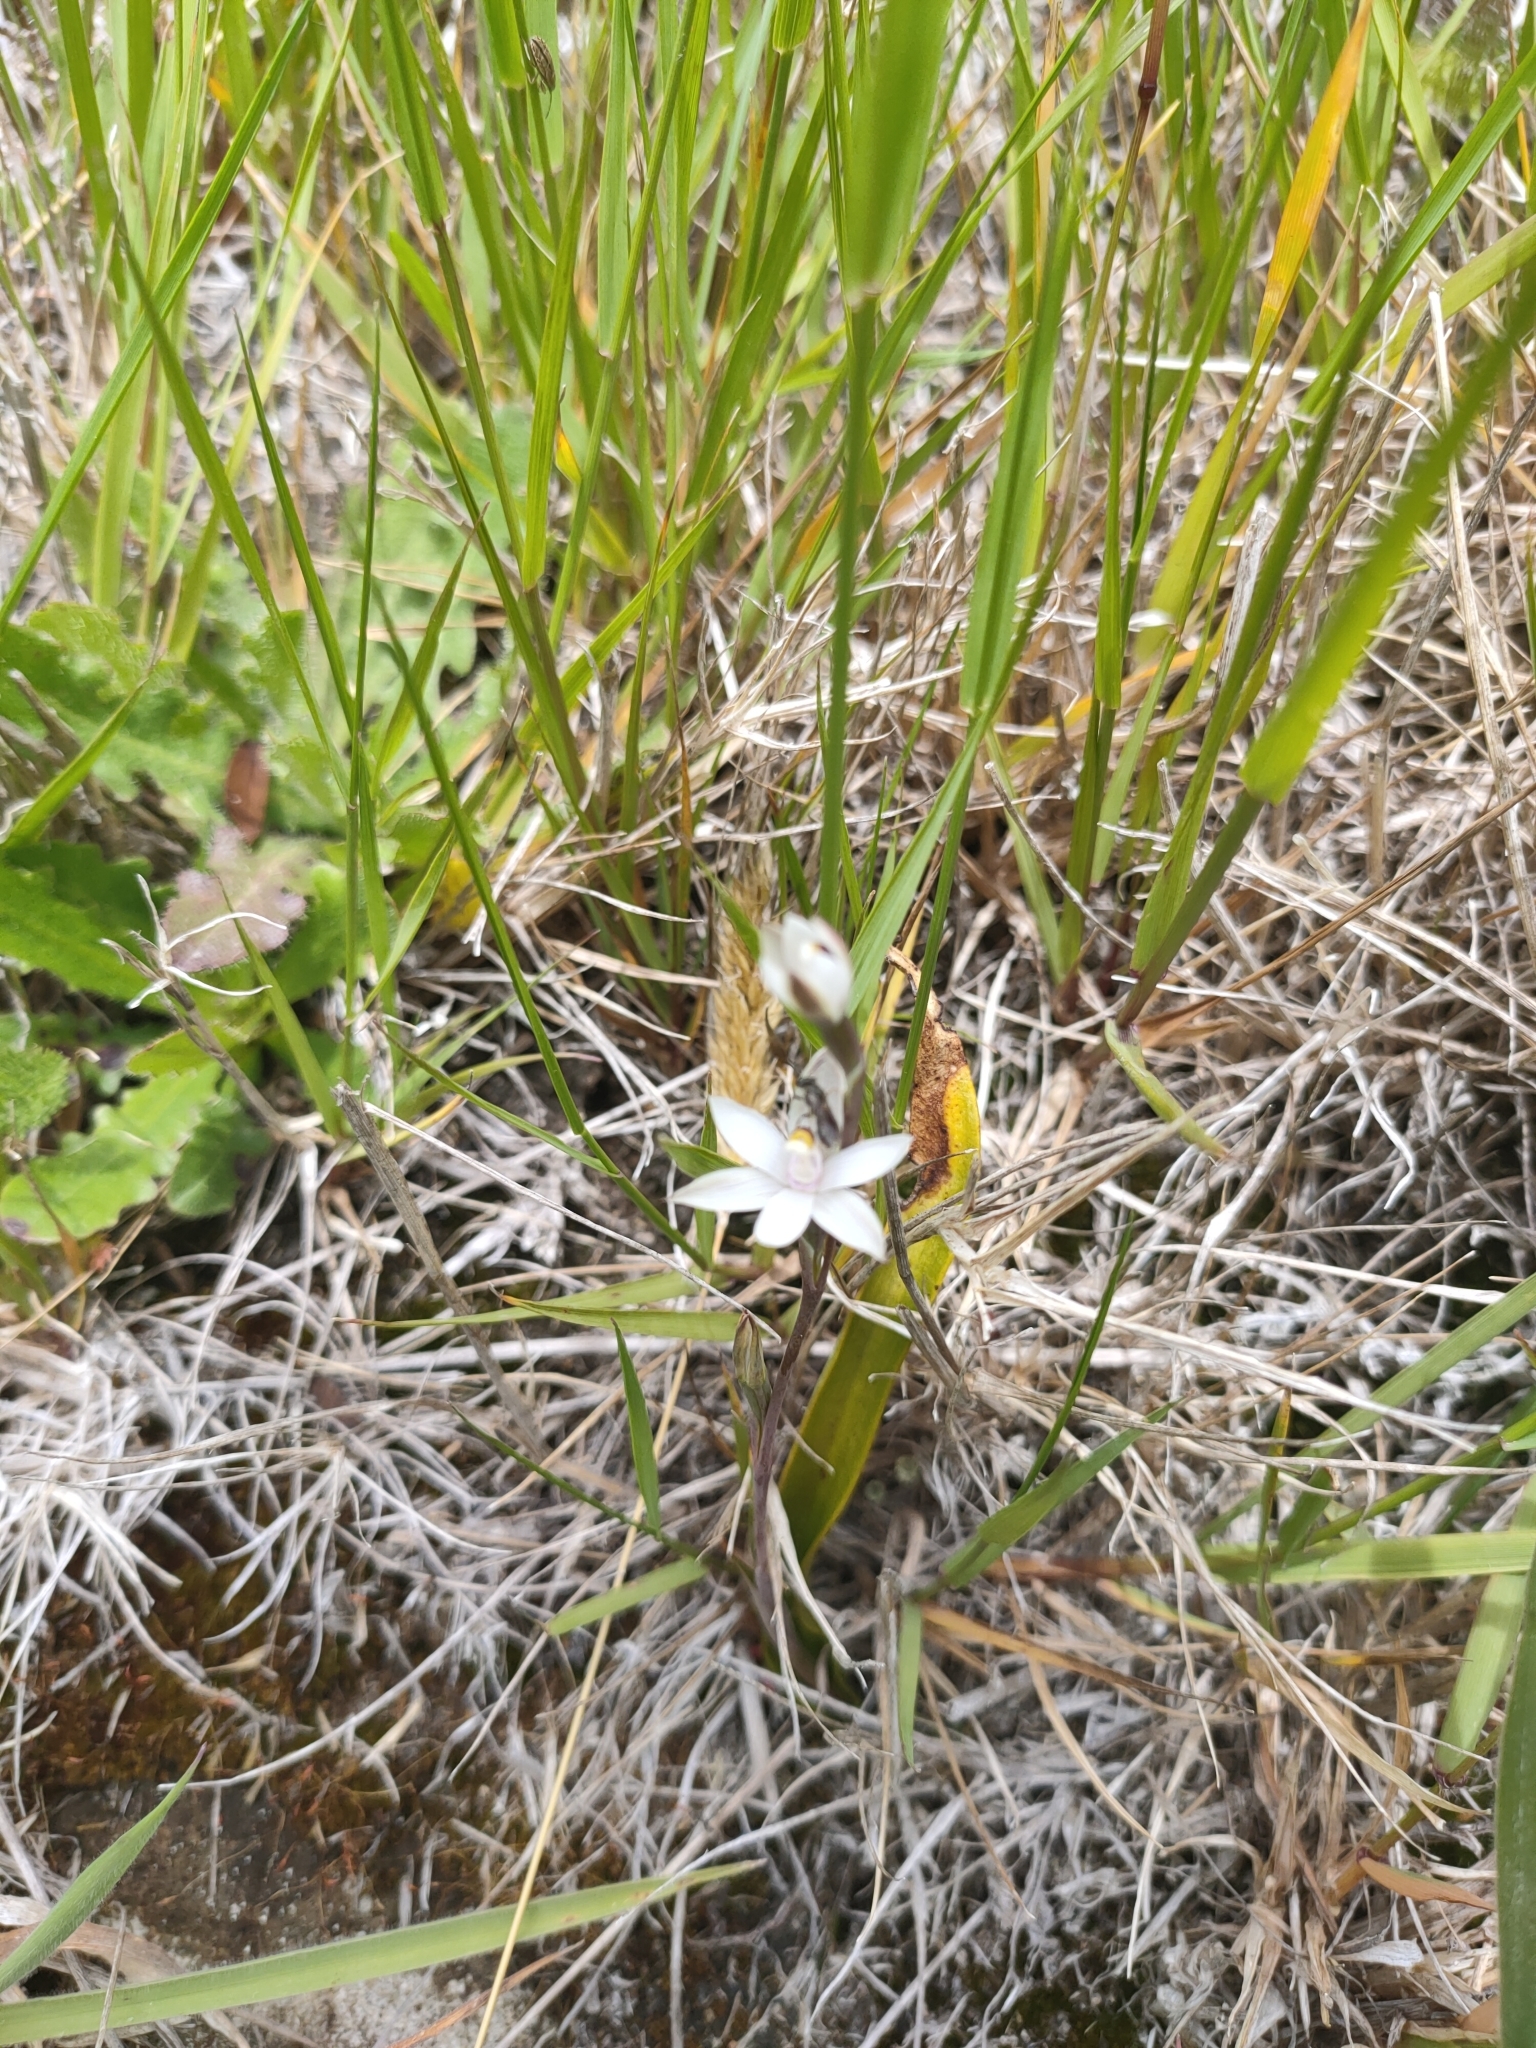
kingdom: Plantae
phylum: Tracheophyta
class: Liliopsida
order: Asparagales
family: Orchidaceae
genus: Thelymitra
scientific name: Thelymitra longifolia
